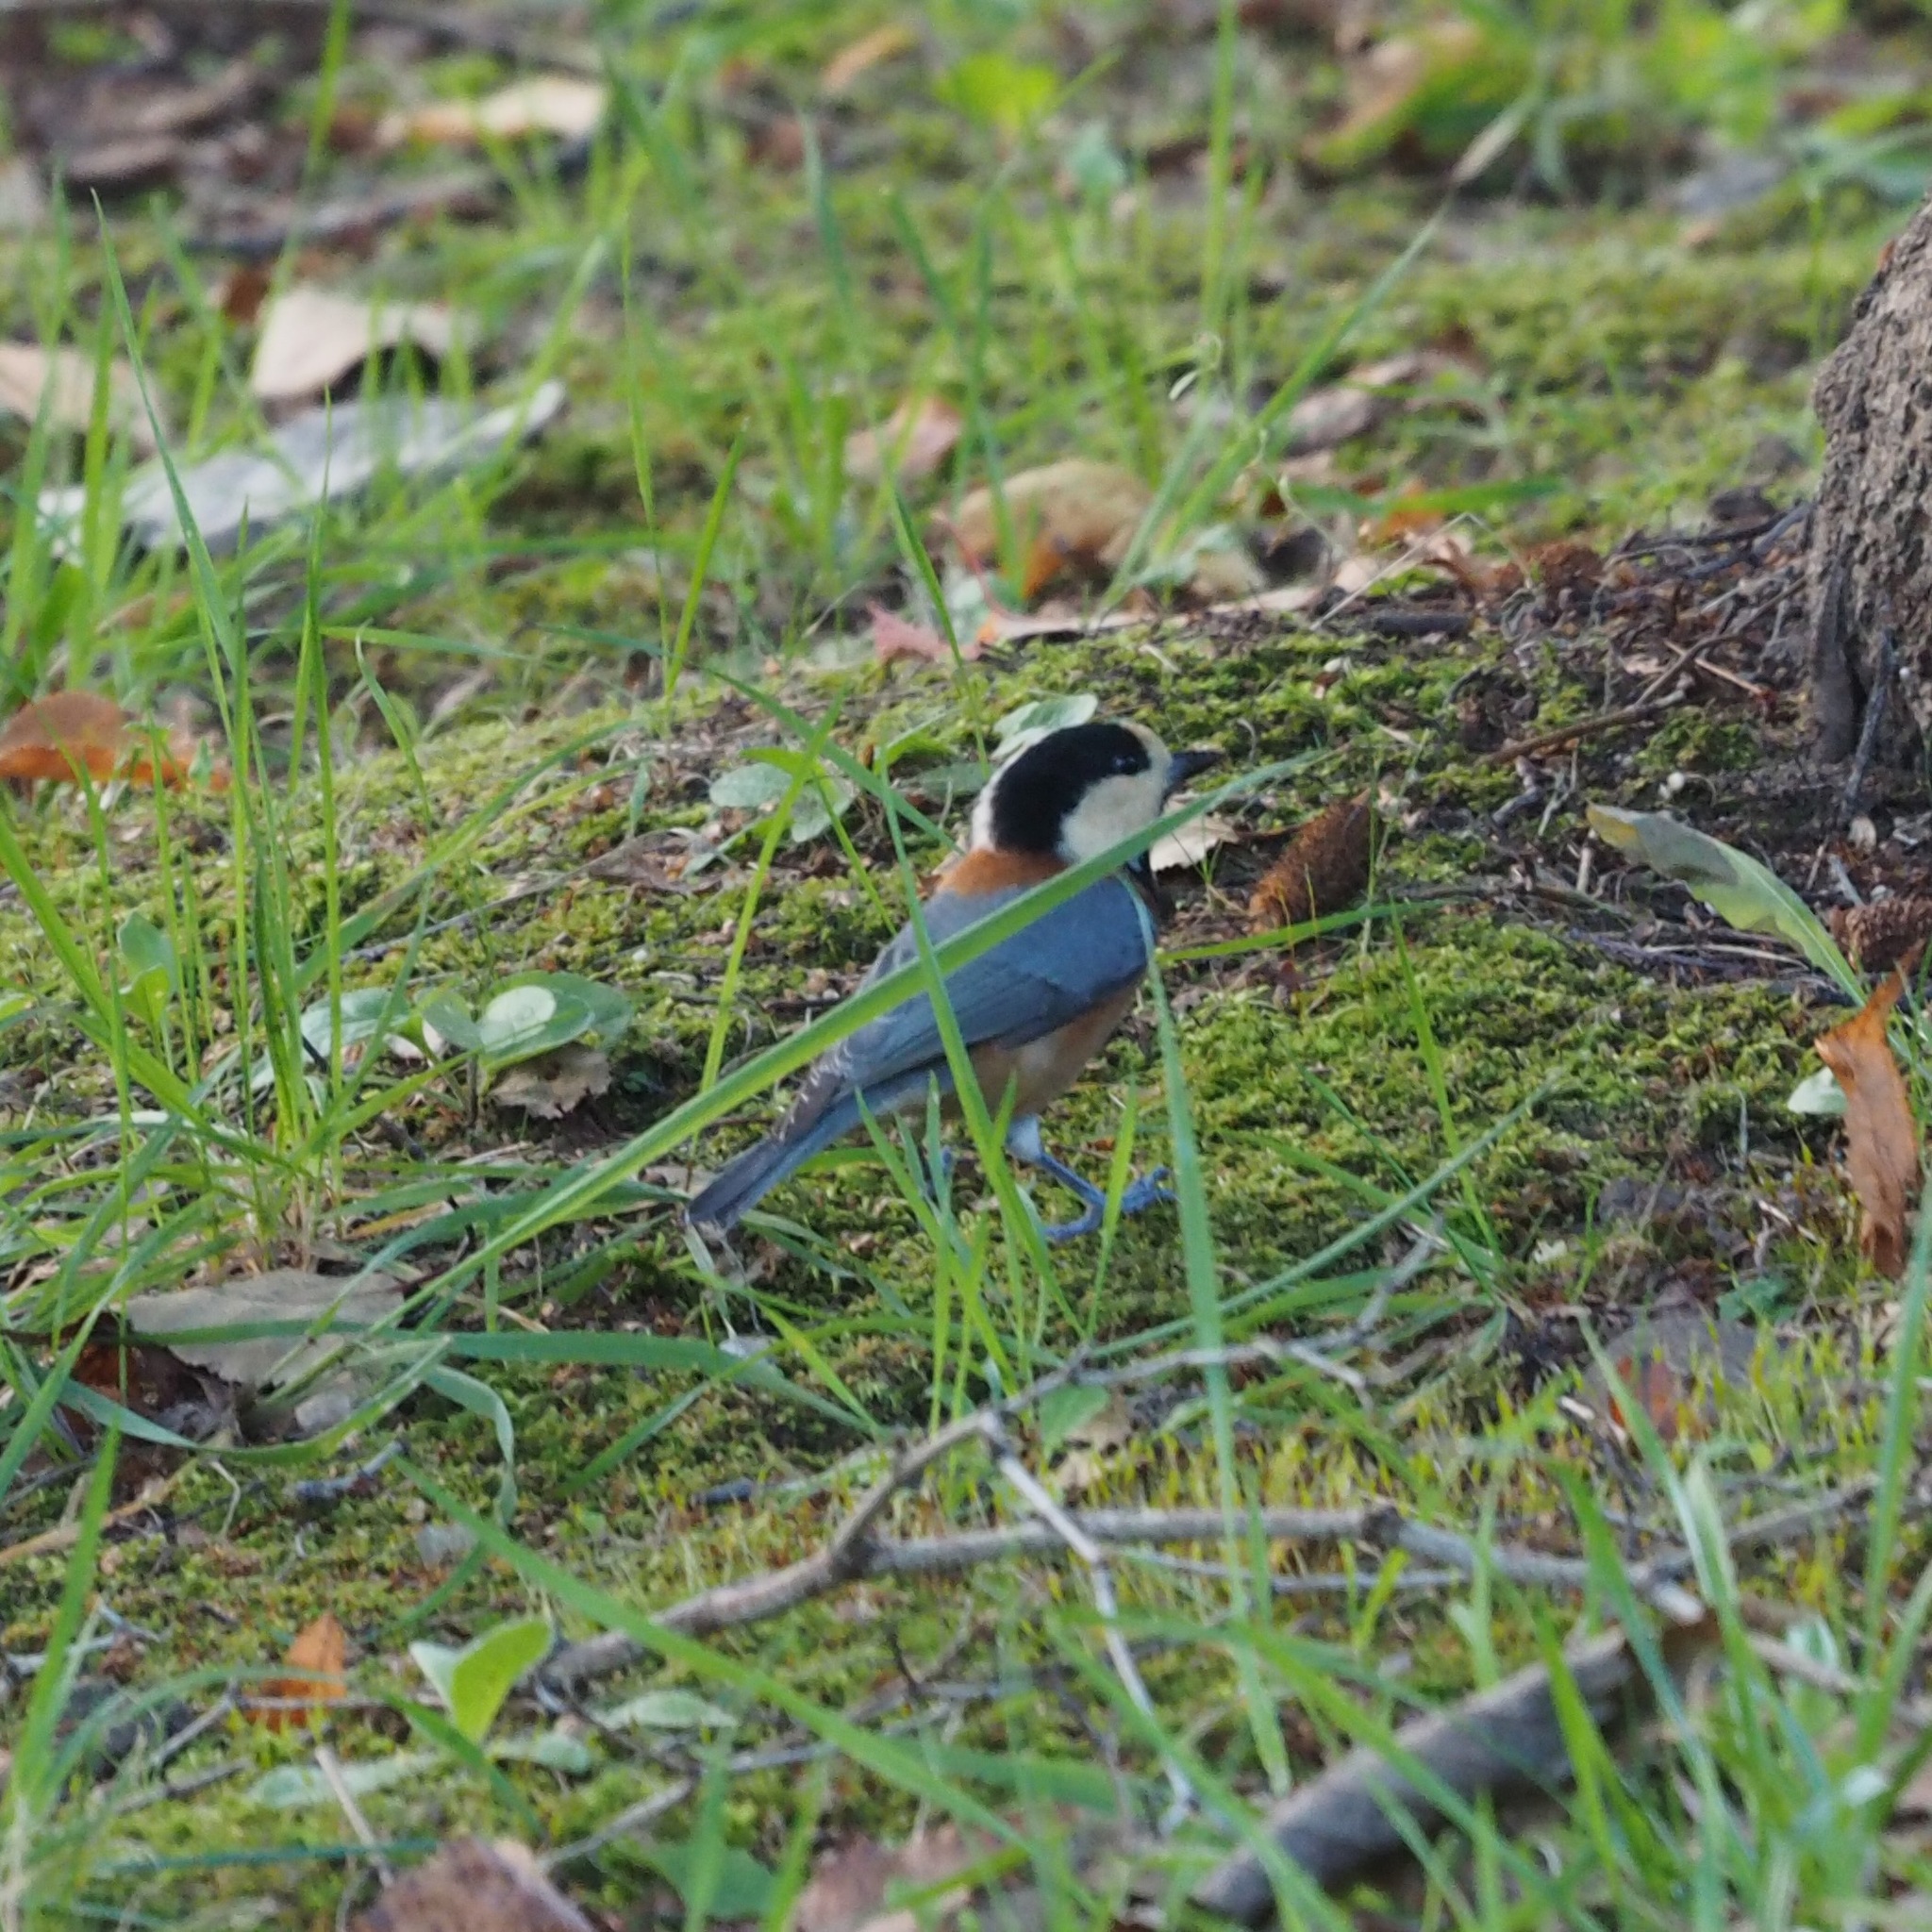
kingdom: Animalia
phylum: Chordata
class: Aves
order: Passeriformes
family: Paridae
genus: Poecile
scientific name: Poecile varius
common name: Varied tit
